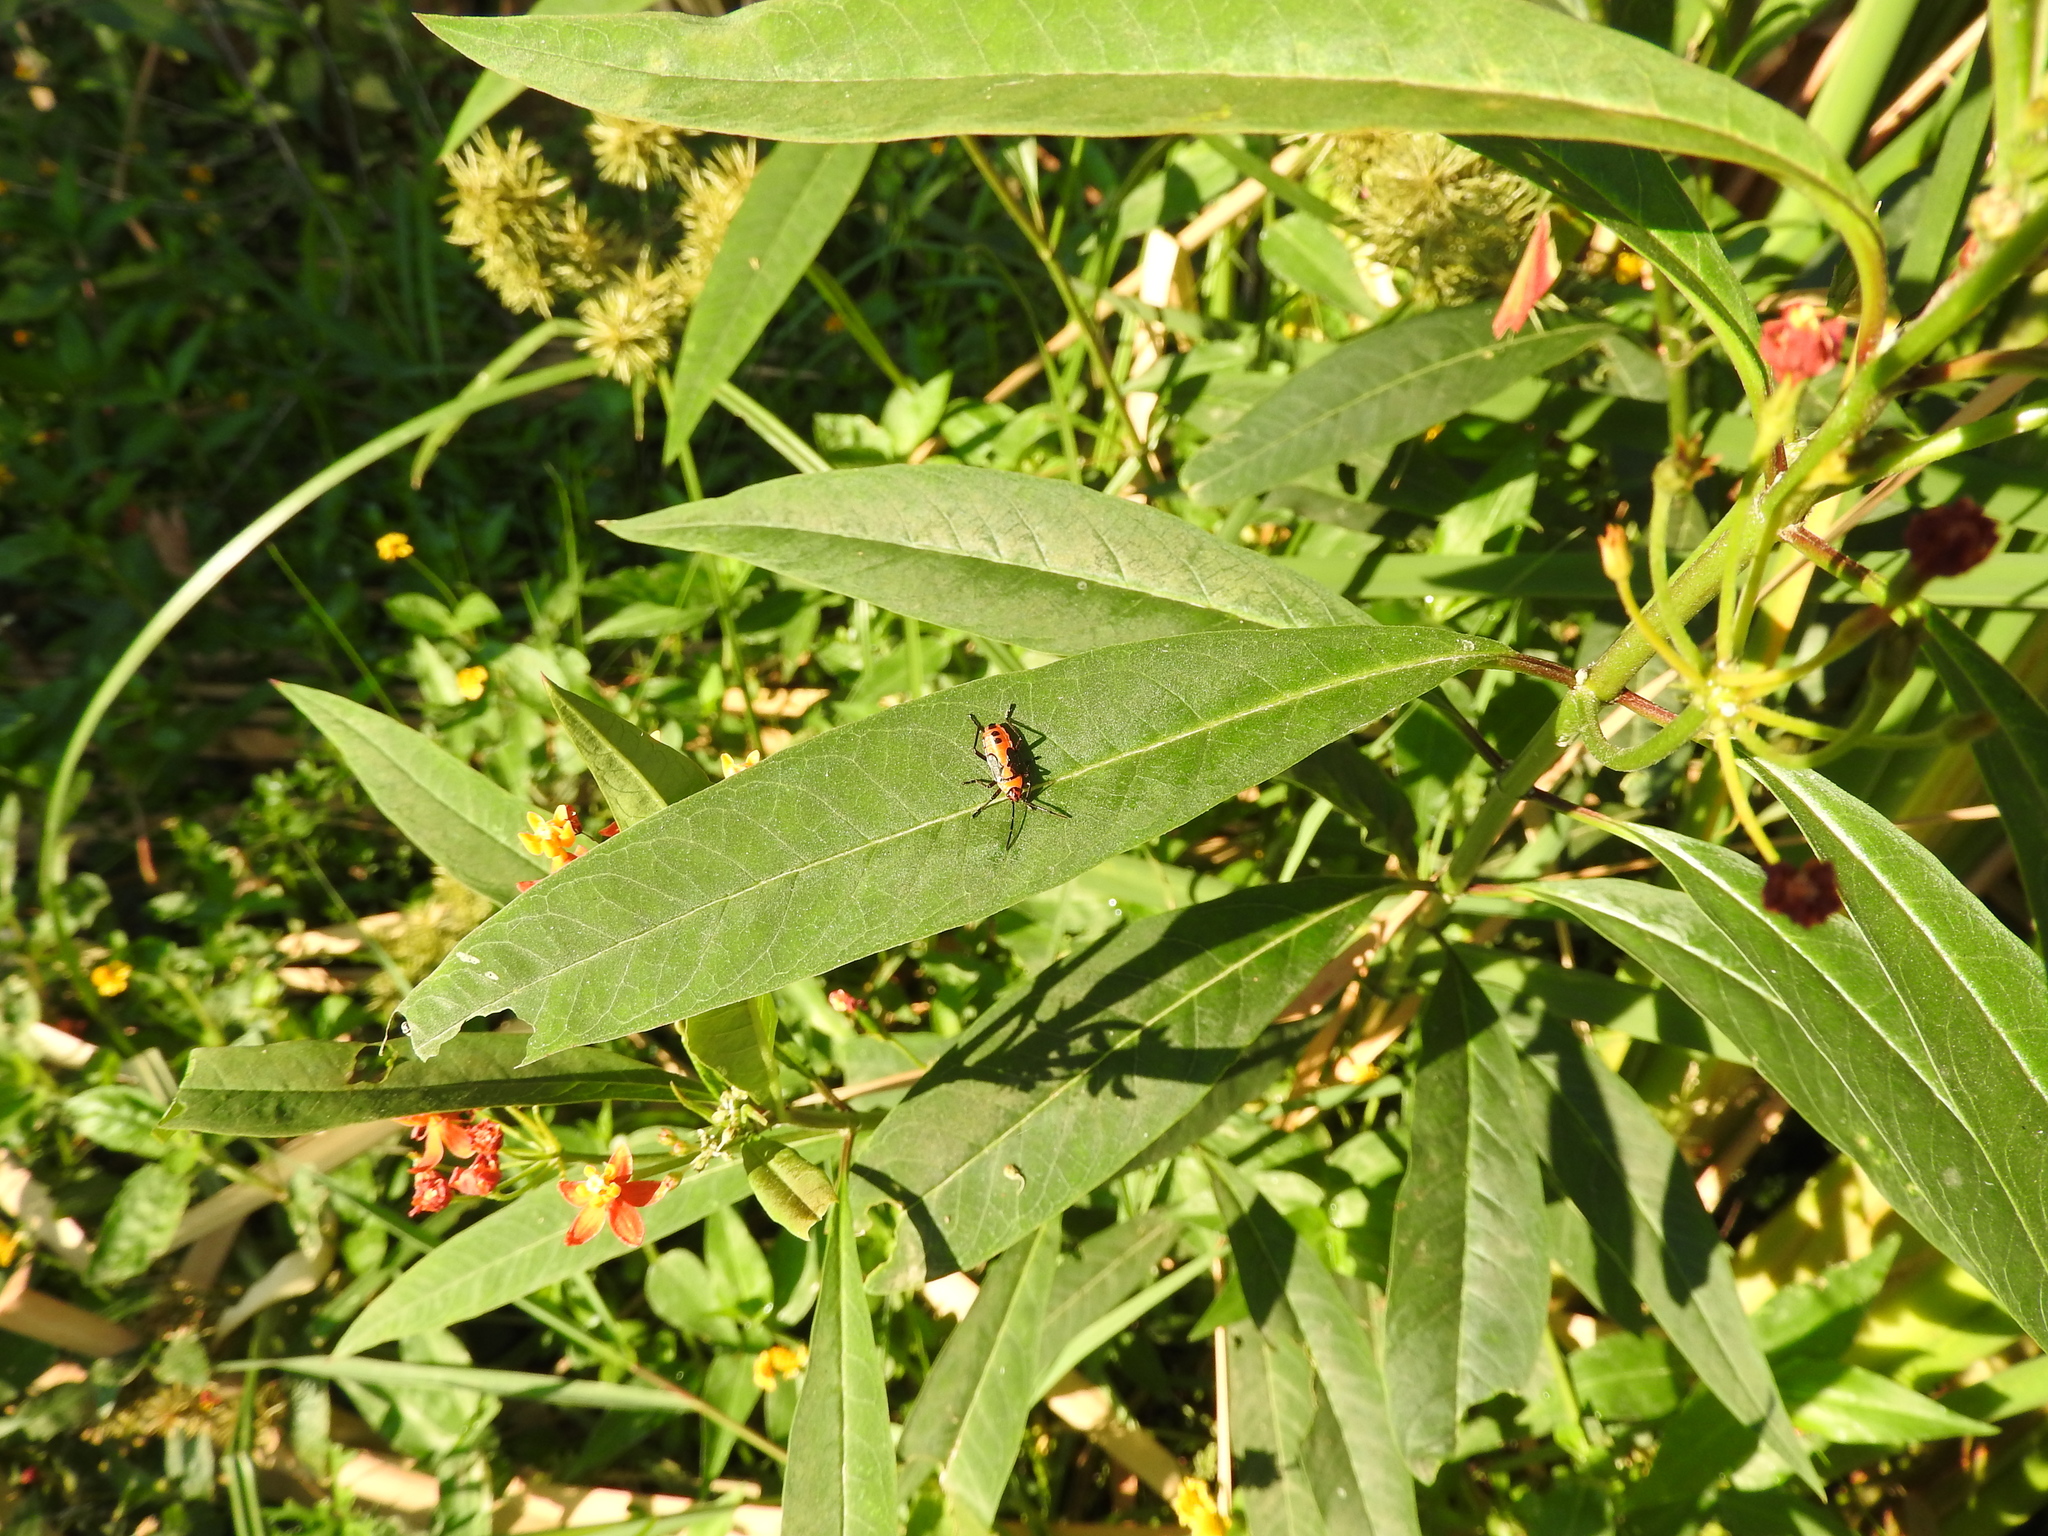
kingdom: Animalia
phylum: Arthropoda
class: Insecta
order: Hemiptera
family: Lygaeidae
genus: Oncopeltus
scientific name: Oncopeltus fasciatus
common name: Large milkweed bug
